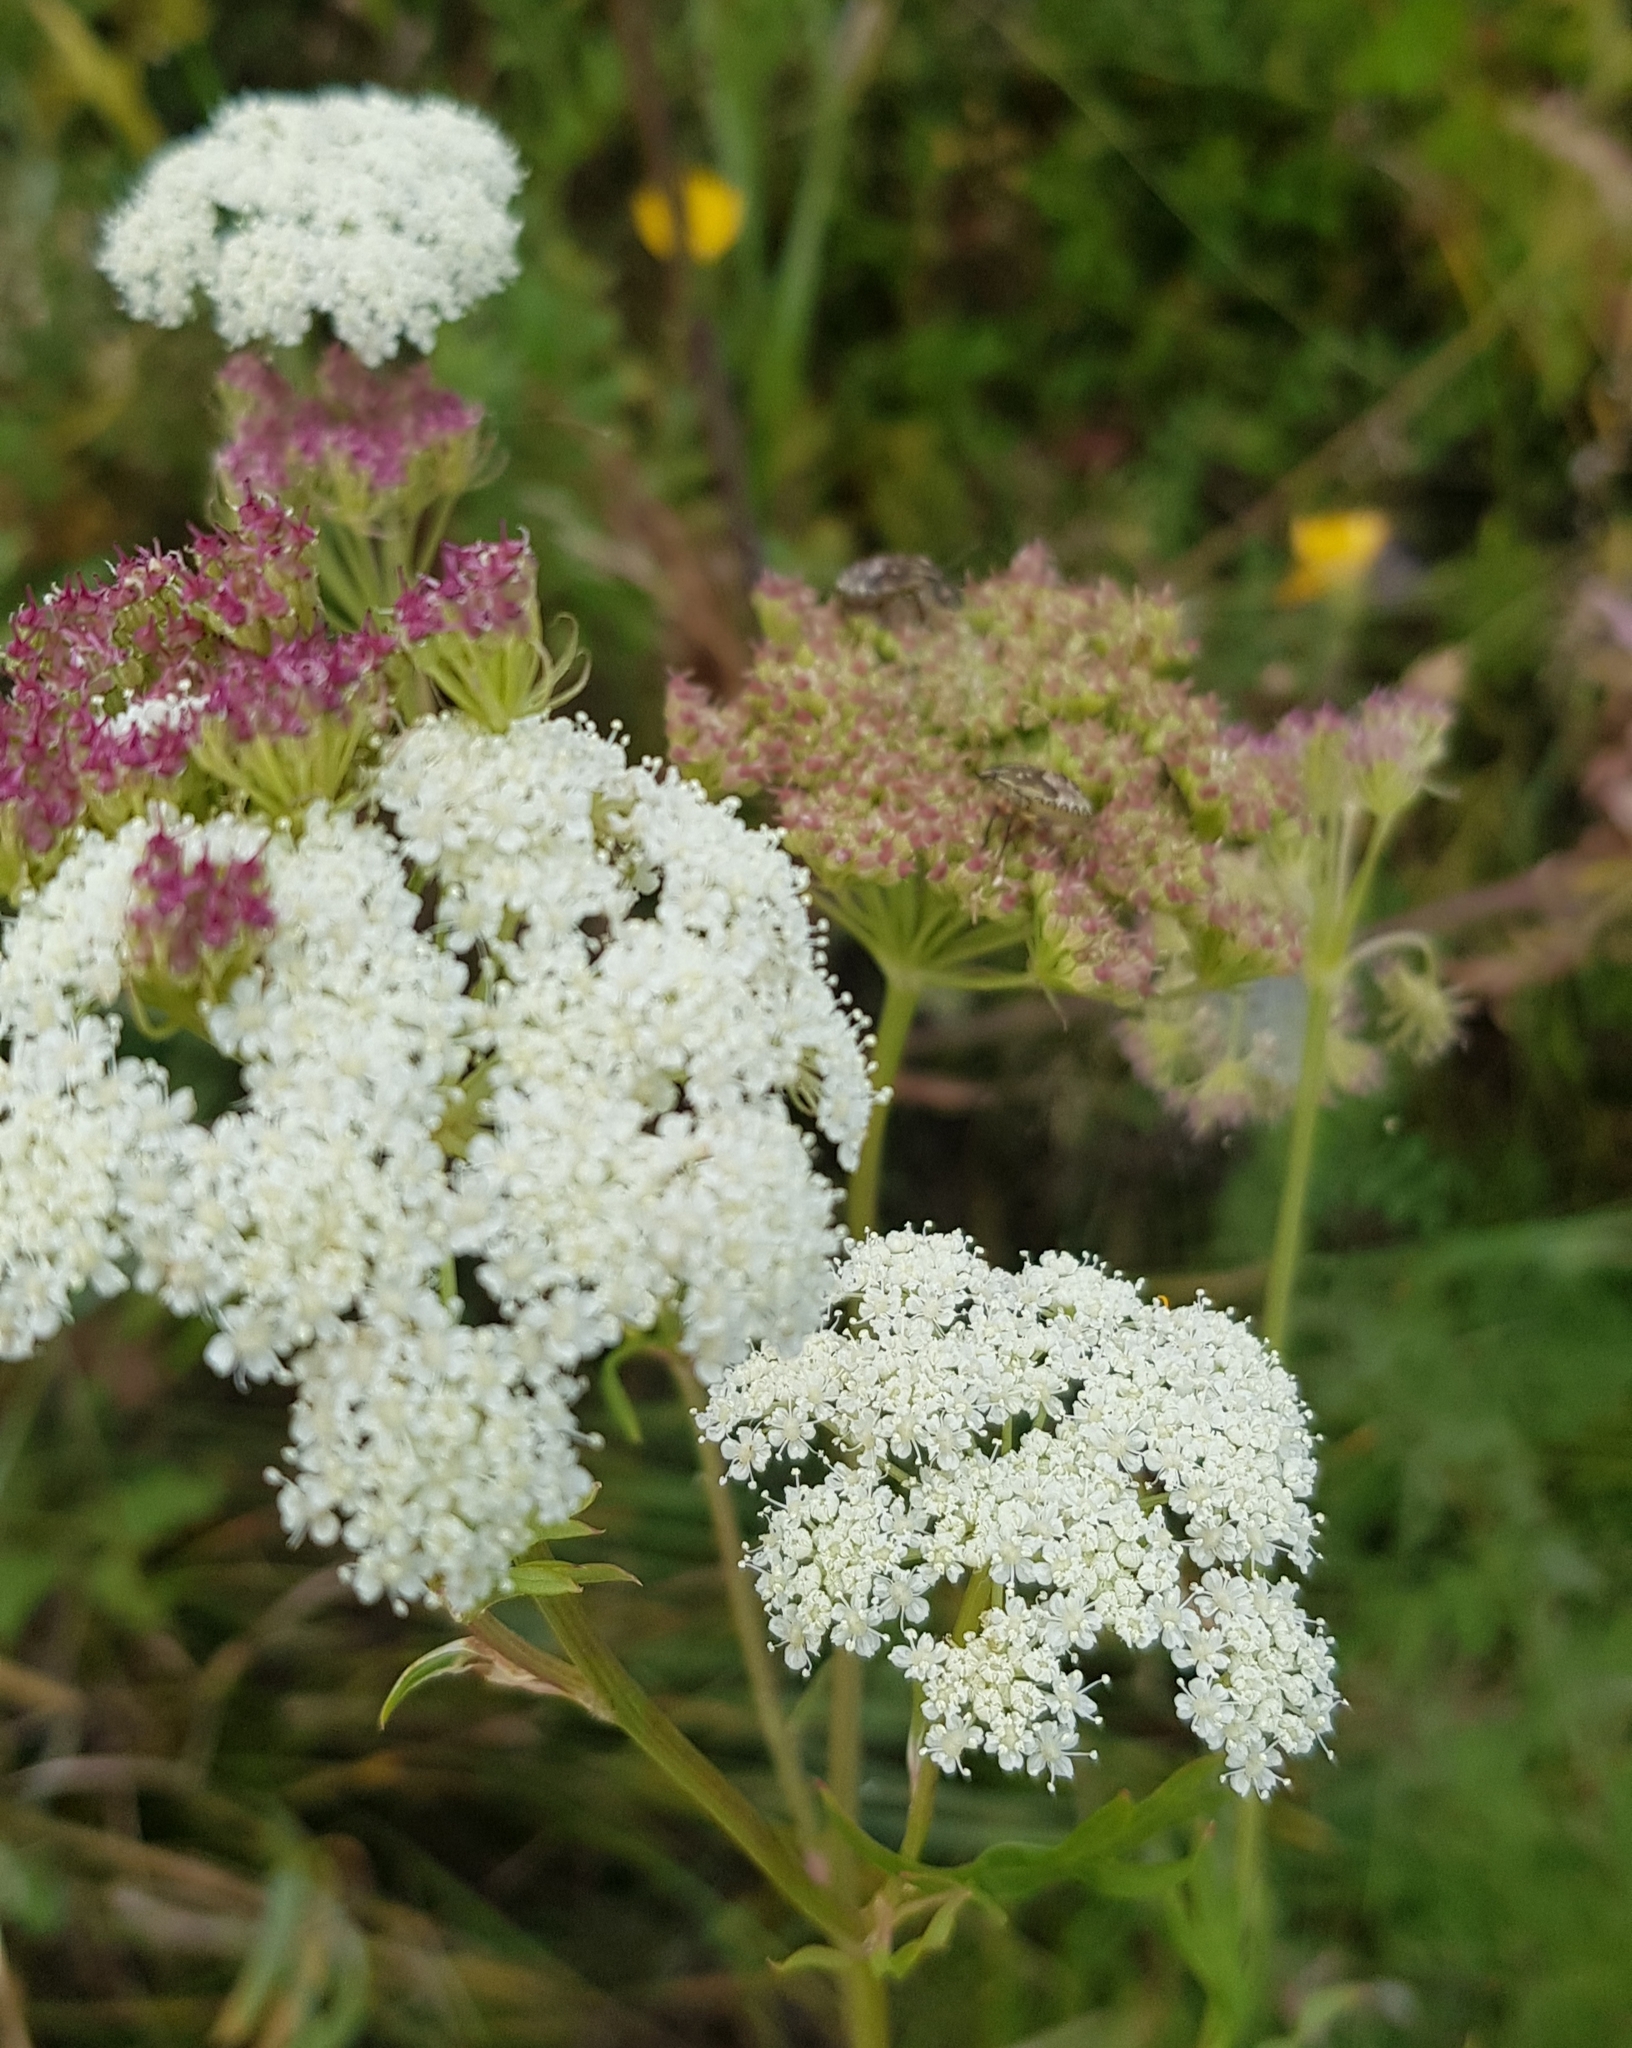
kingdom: Plantae
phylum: Tracheophyta
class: Magnoliopsida
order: Apiales
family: Apiaceae
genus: Kitagawia
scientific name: Kitagawia terebinthacea
